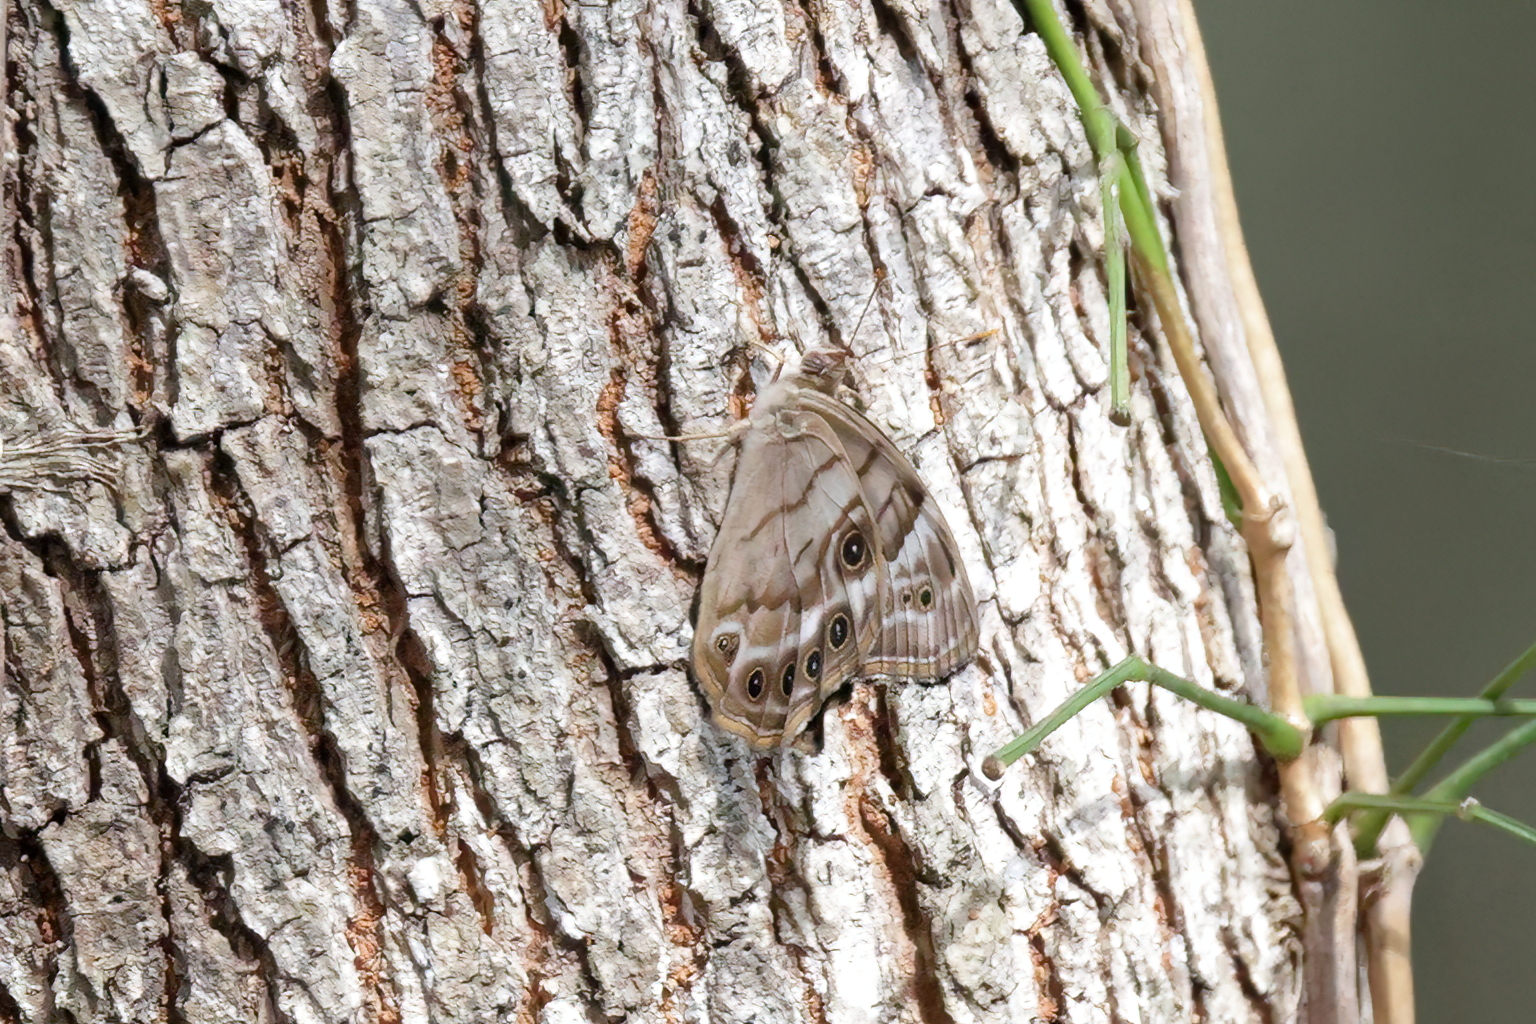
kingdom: Animalia
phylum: Arthropoda
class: Insecta
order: Lepidoptera
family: Nymphalidae
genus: Enodia
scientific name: Enodia portlandia
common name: Southern pearly-eye
